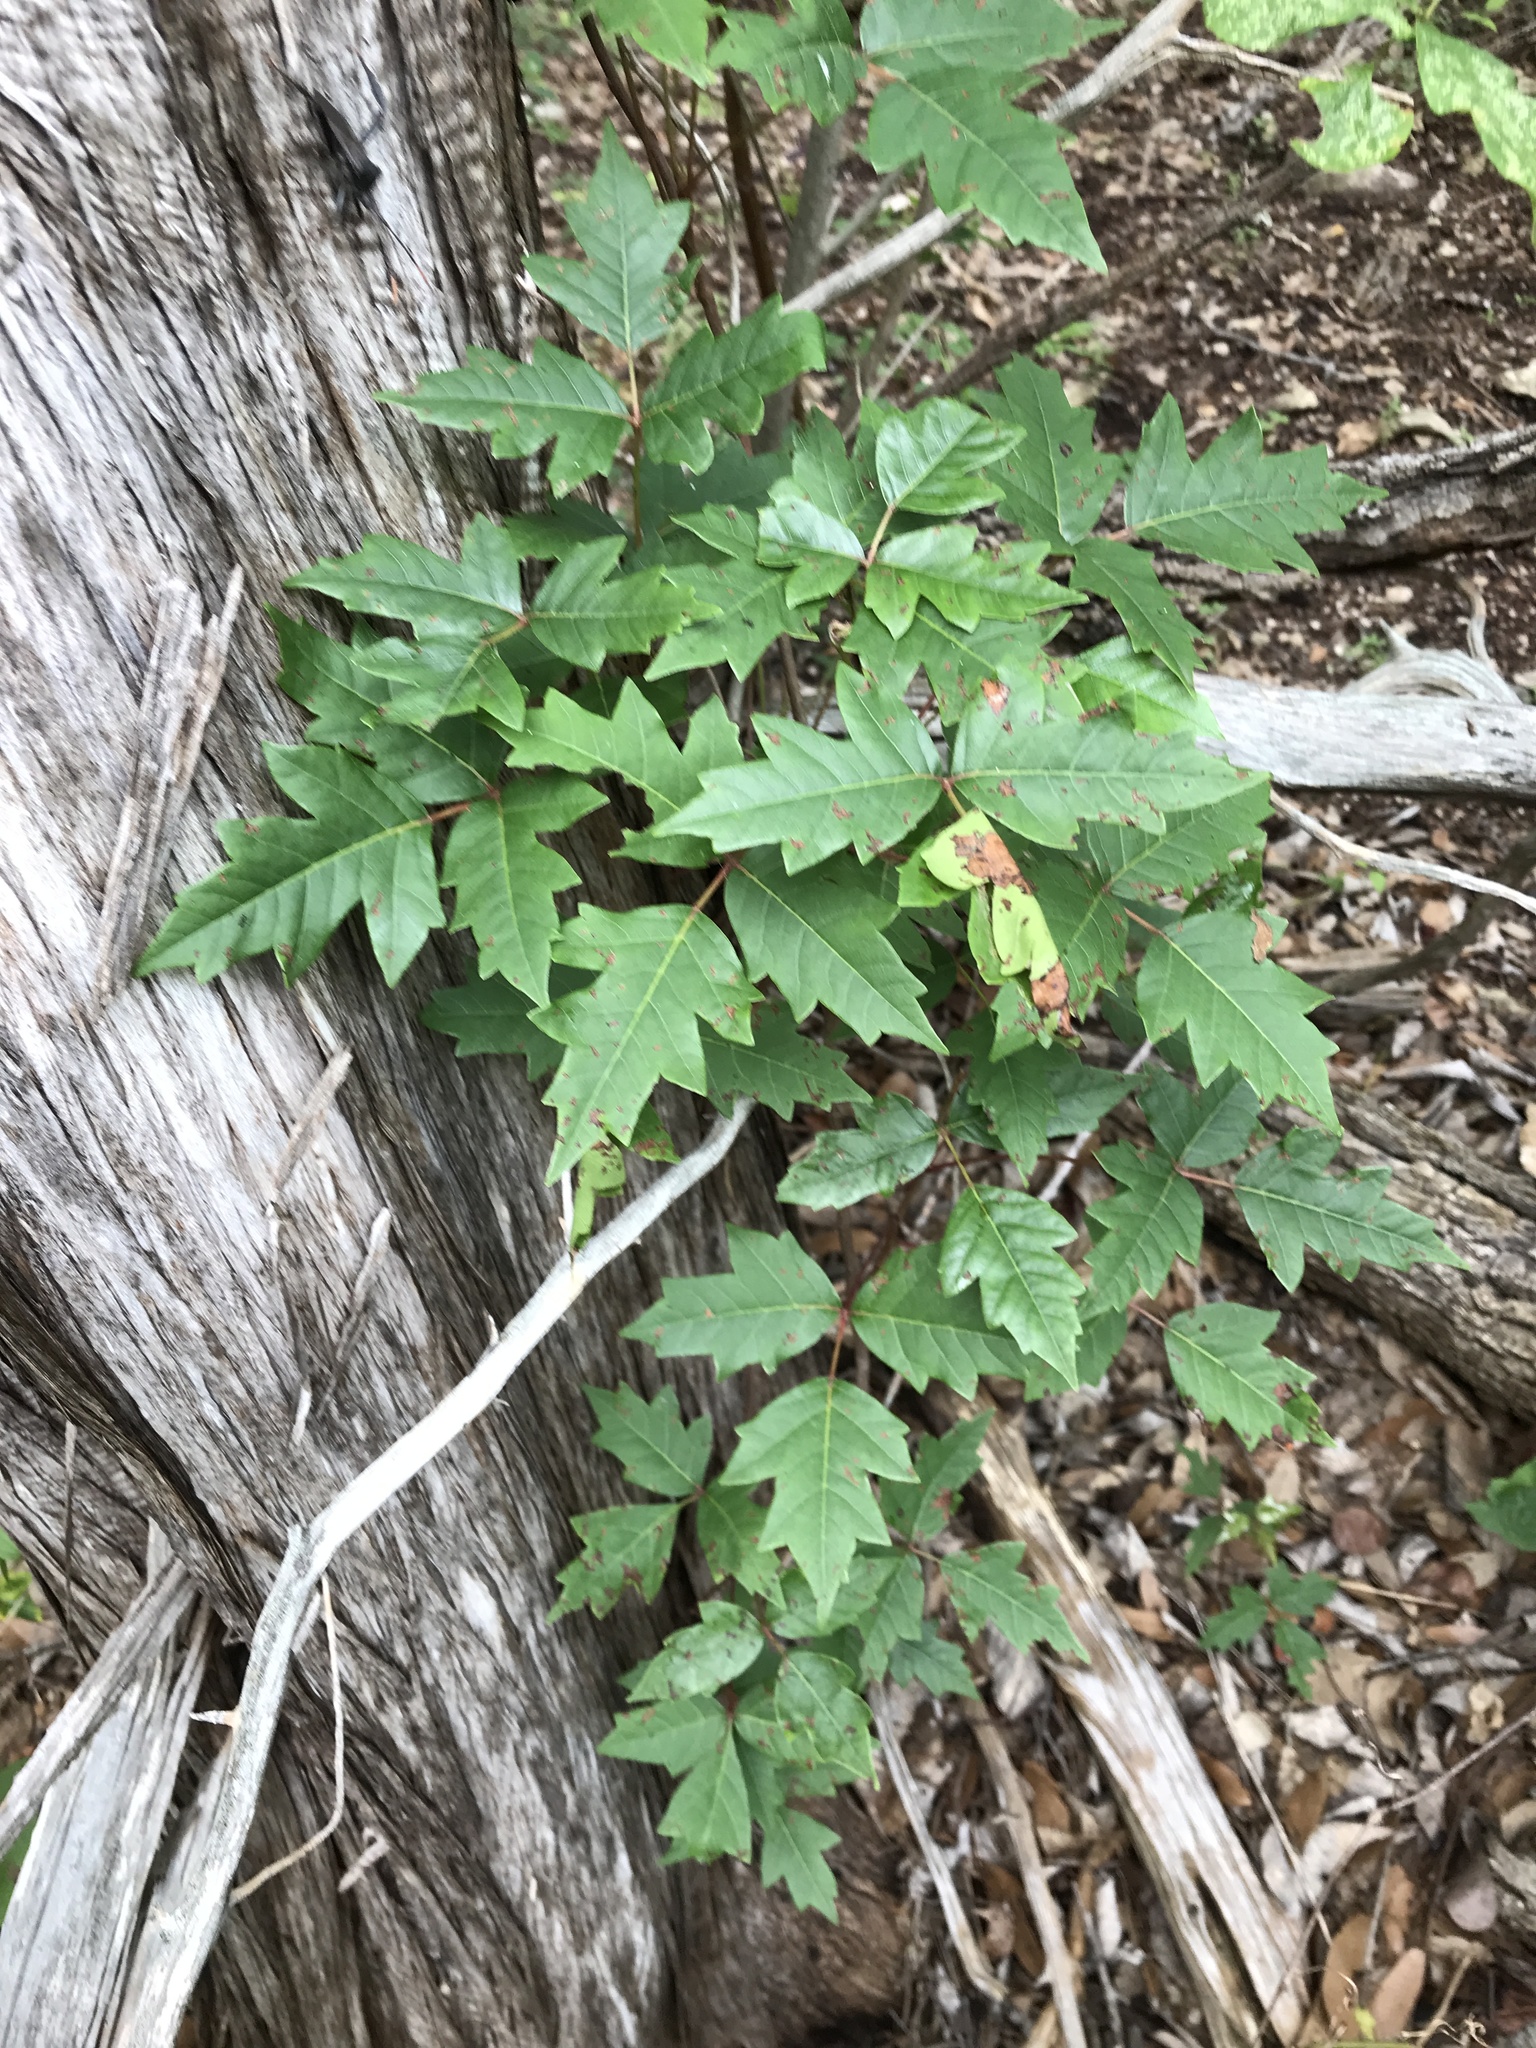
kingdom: Plantae
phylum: Tracheophyta
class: Magnoliopsida
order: Sapindales
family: Anacardiaceae
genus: Toxicodendron
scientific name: Toxicodendron radicans
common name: Poison ivy
